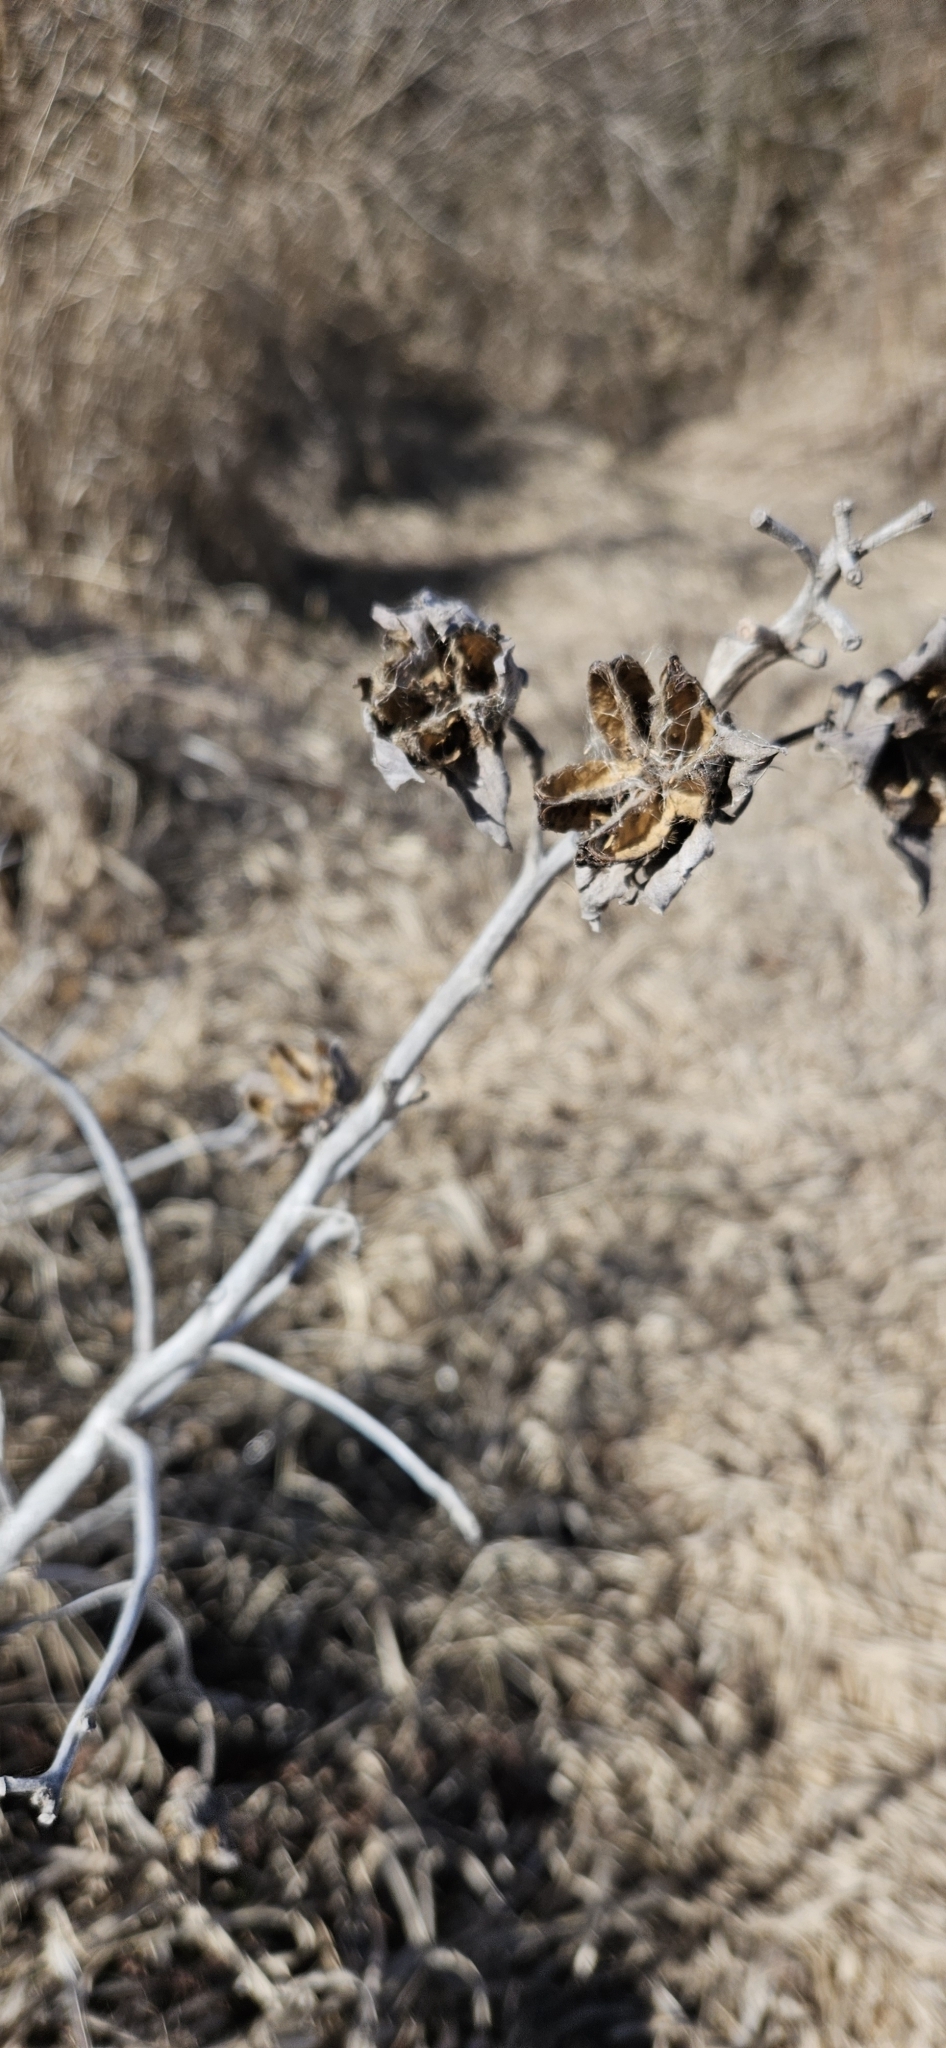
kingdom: Plantae
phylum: Tracheophyta
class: Magnoliopsida
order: Malvales
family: Malvaceae
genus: Hibiscus
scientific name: Hibiscus moscheutos
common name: Common rose-mallow
